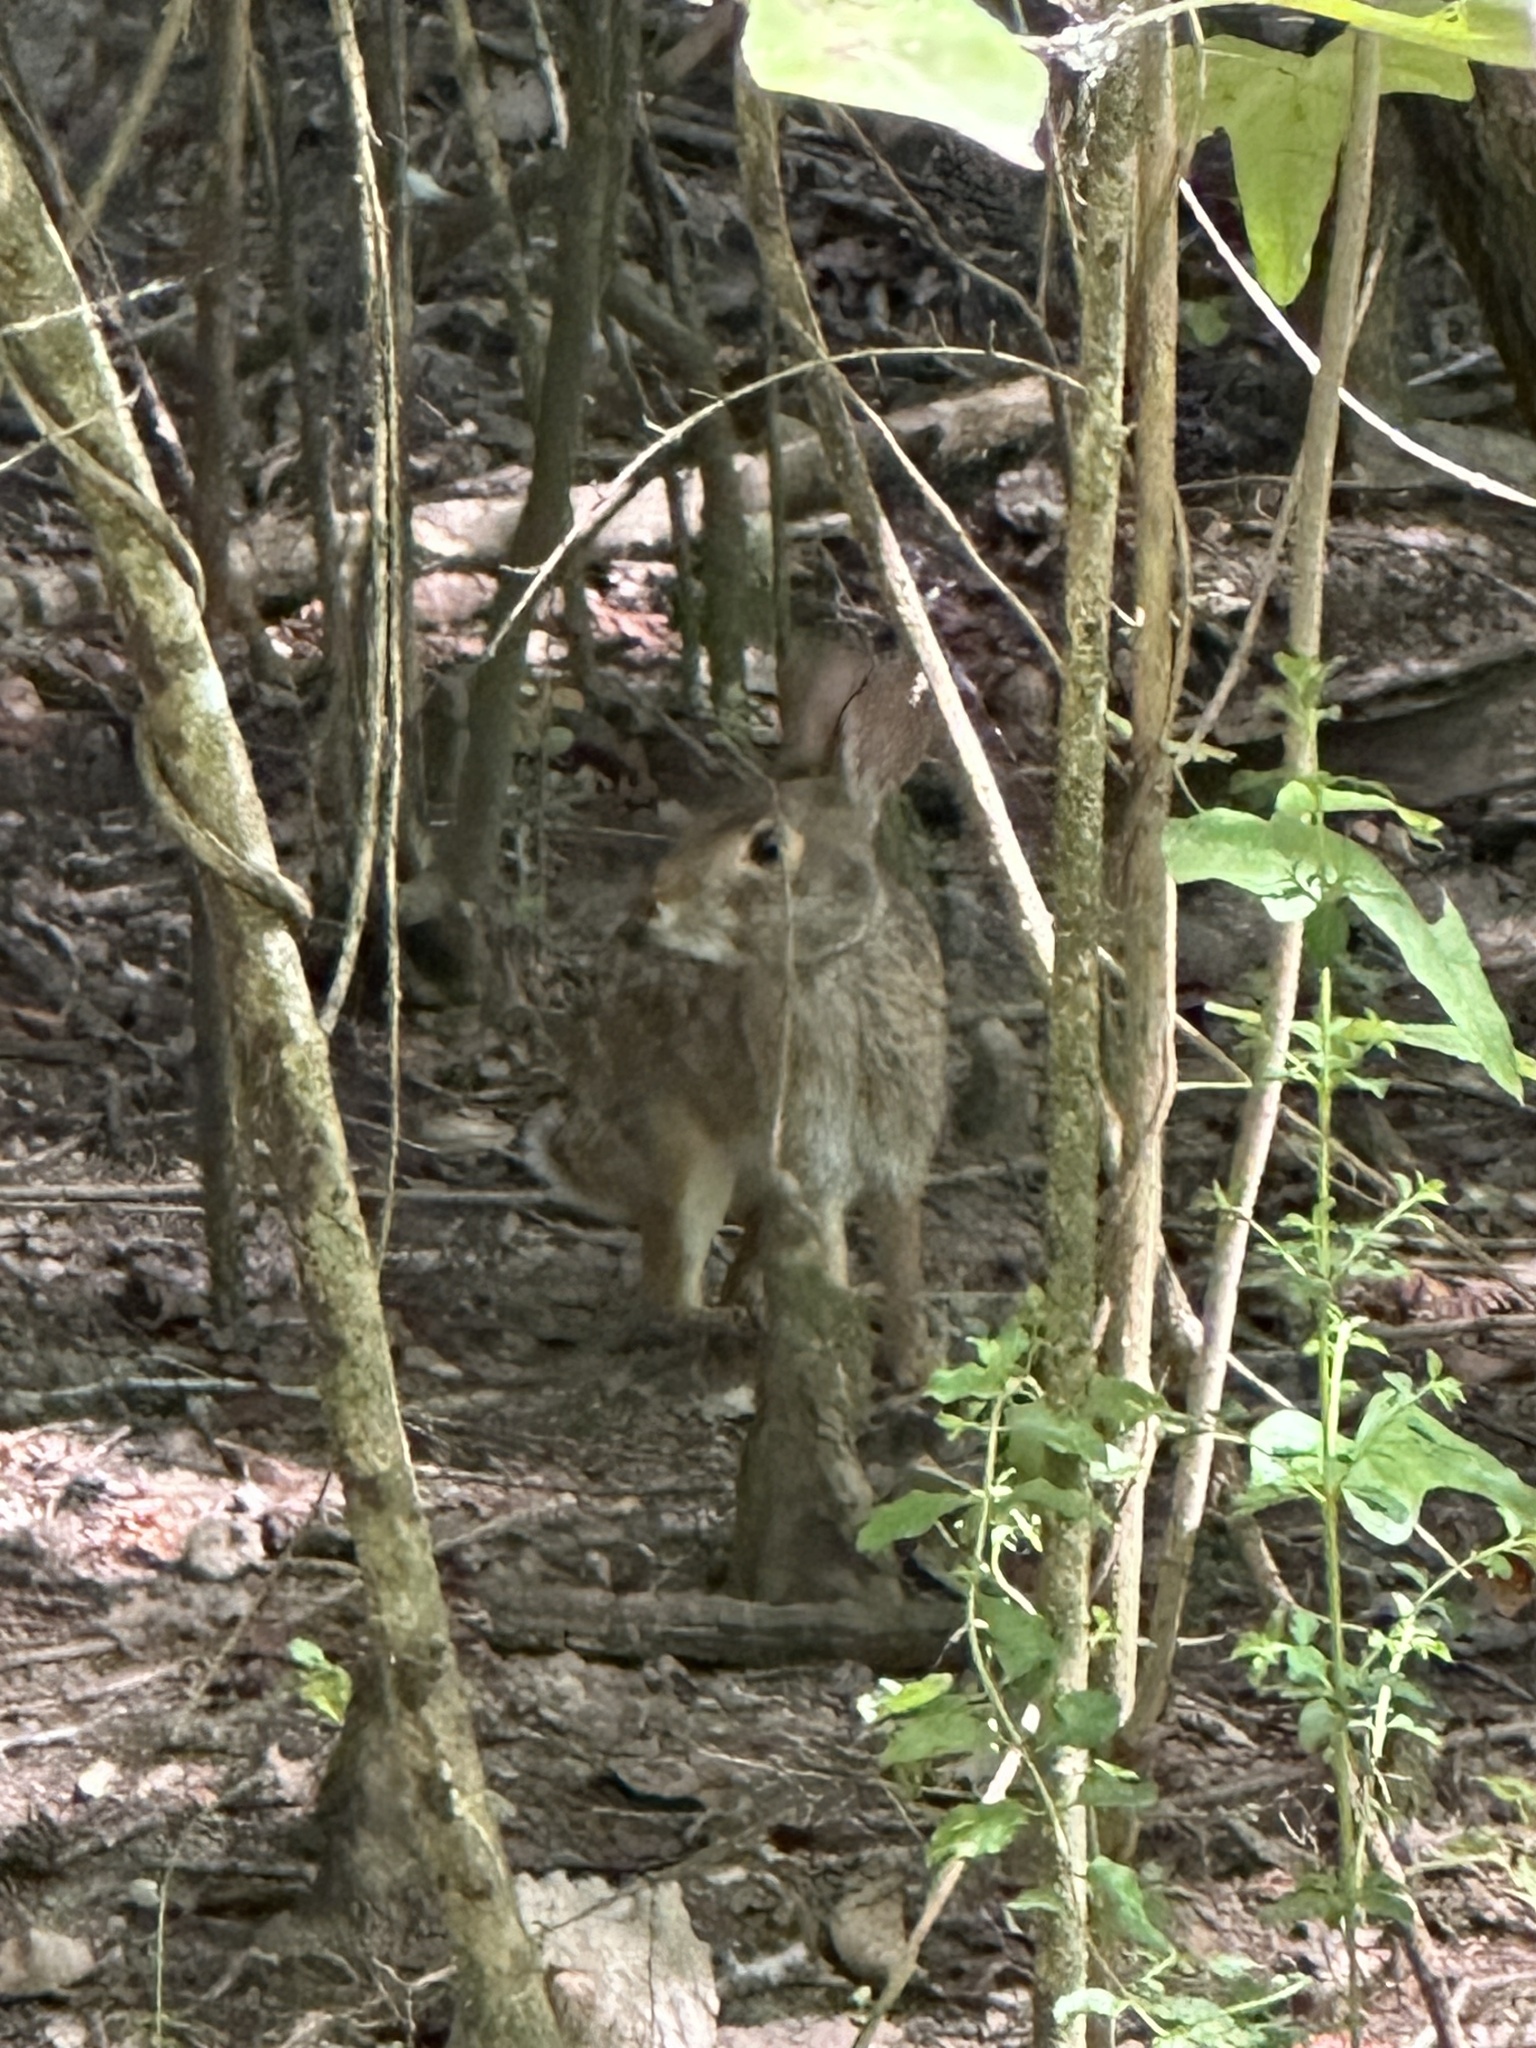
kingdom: Animalia
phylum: Chordata
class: Mammalia
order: Lagomorpha
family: Leporidae
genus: Sylvilagus
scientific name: Sylvilagus aquaticus
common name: Swamp rabbit
